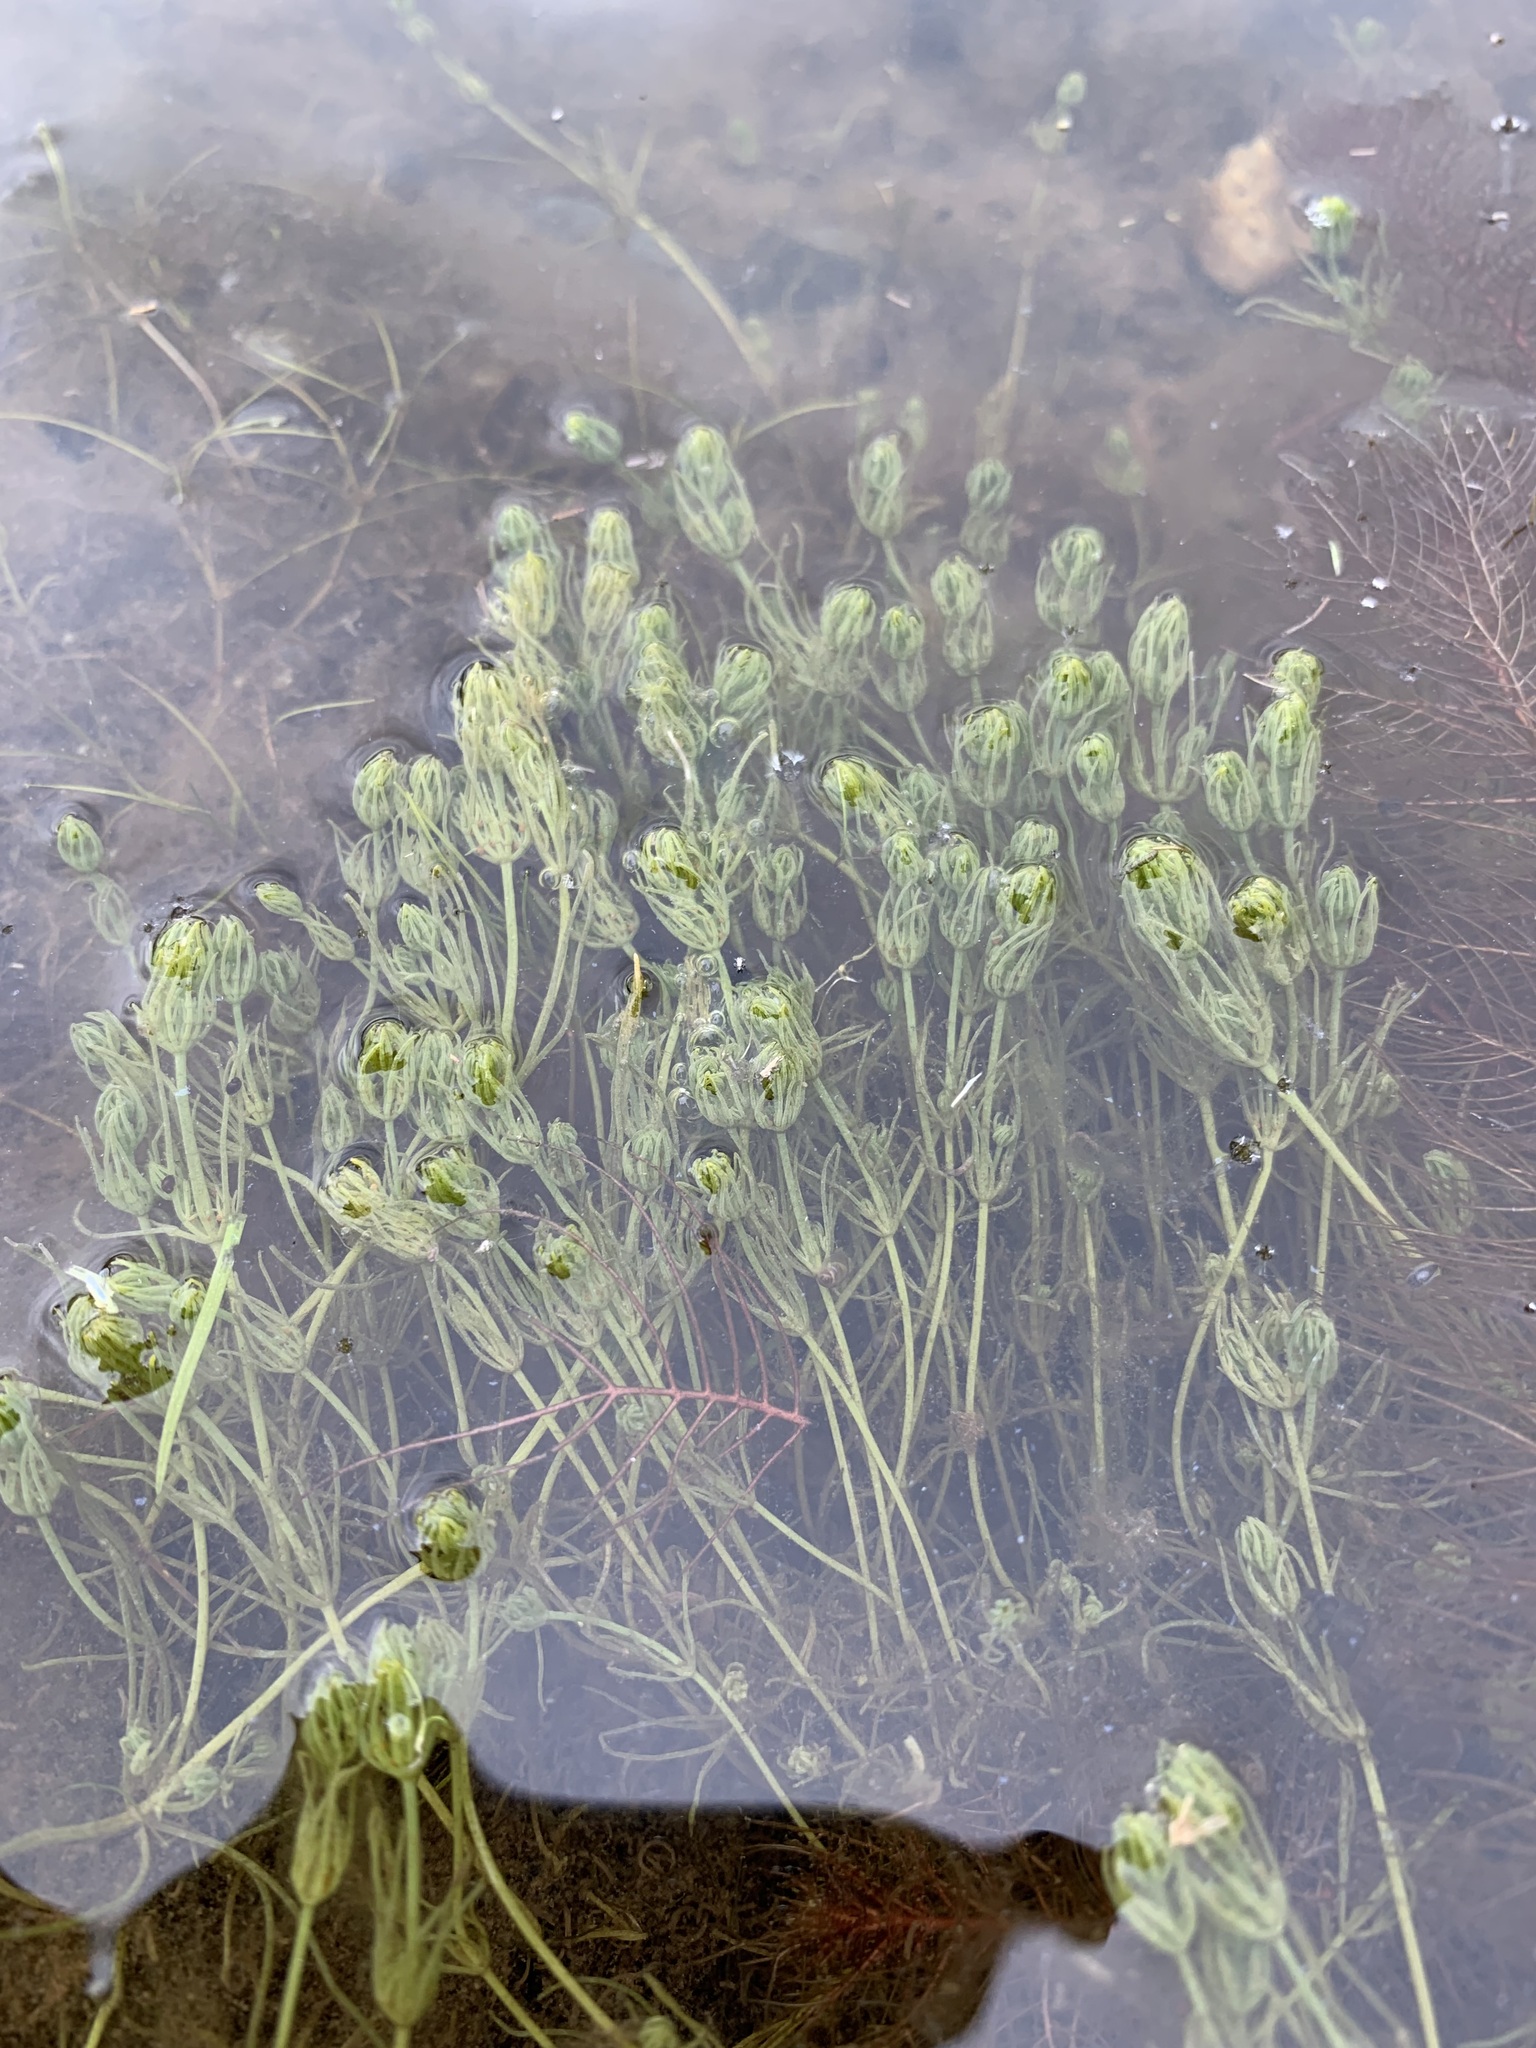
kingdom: Plantae
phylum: Charophyta
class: Charophyceae
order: Charales
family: Characeae
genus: Chara
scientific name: Chara vulgaris
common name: Common stonewort
